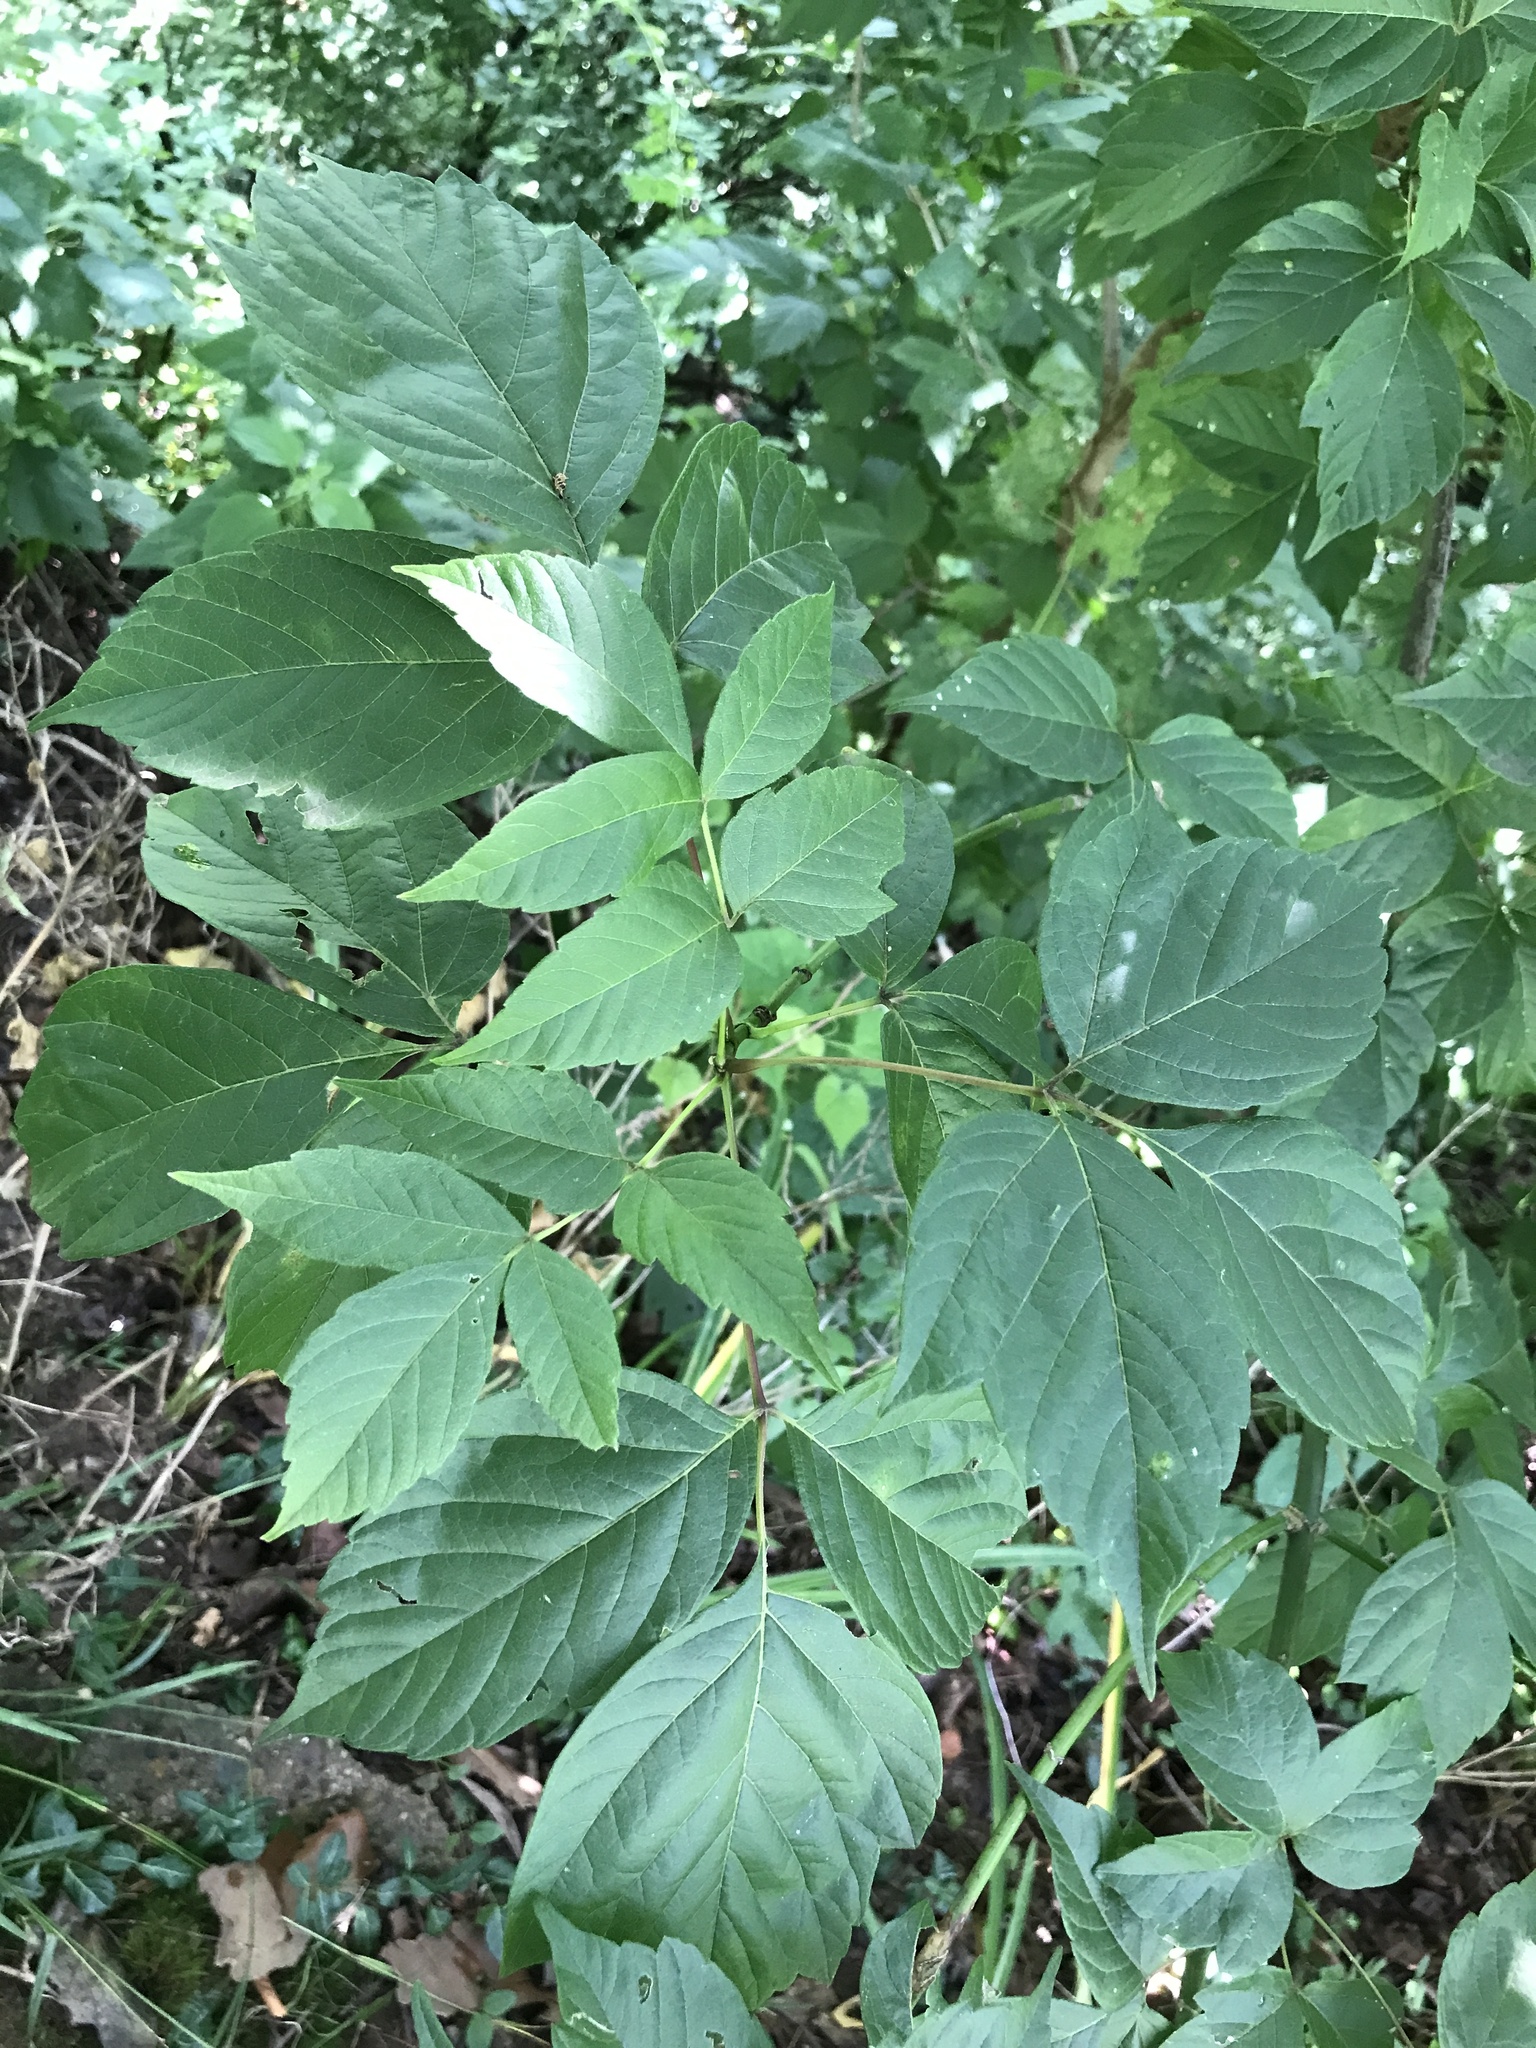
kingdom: Plantae
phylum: Tracheophyta
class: Magnoliopsida
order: Sapindales
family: Sapindaceae
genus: Acer
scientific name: Acer negundo
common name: Ashleaf maple
